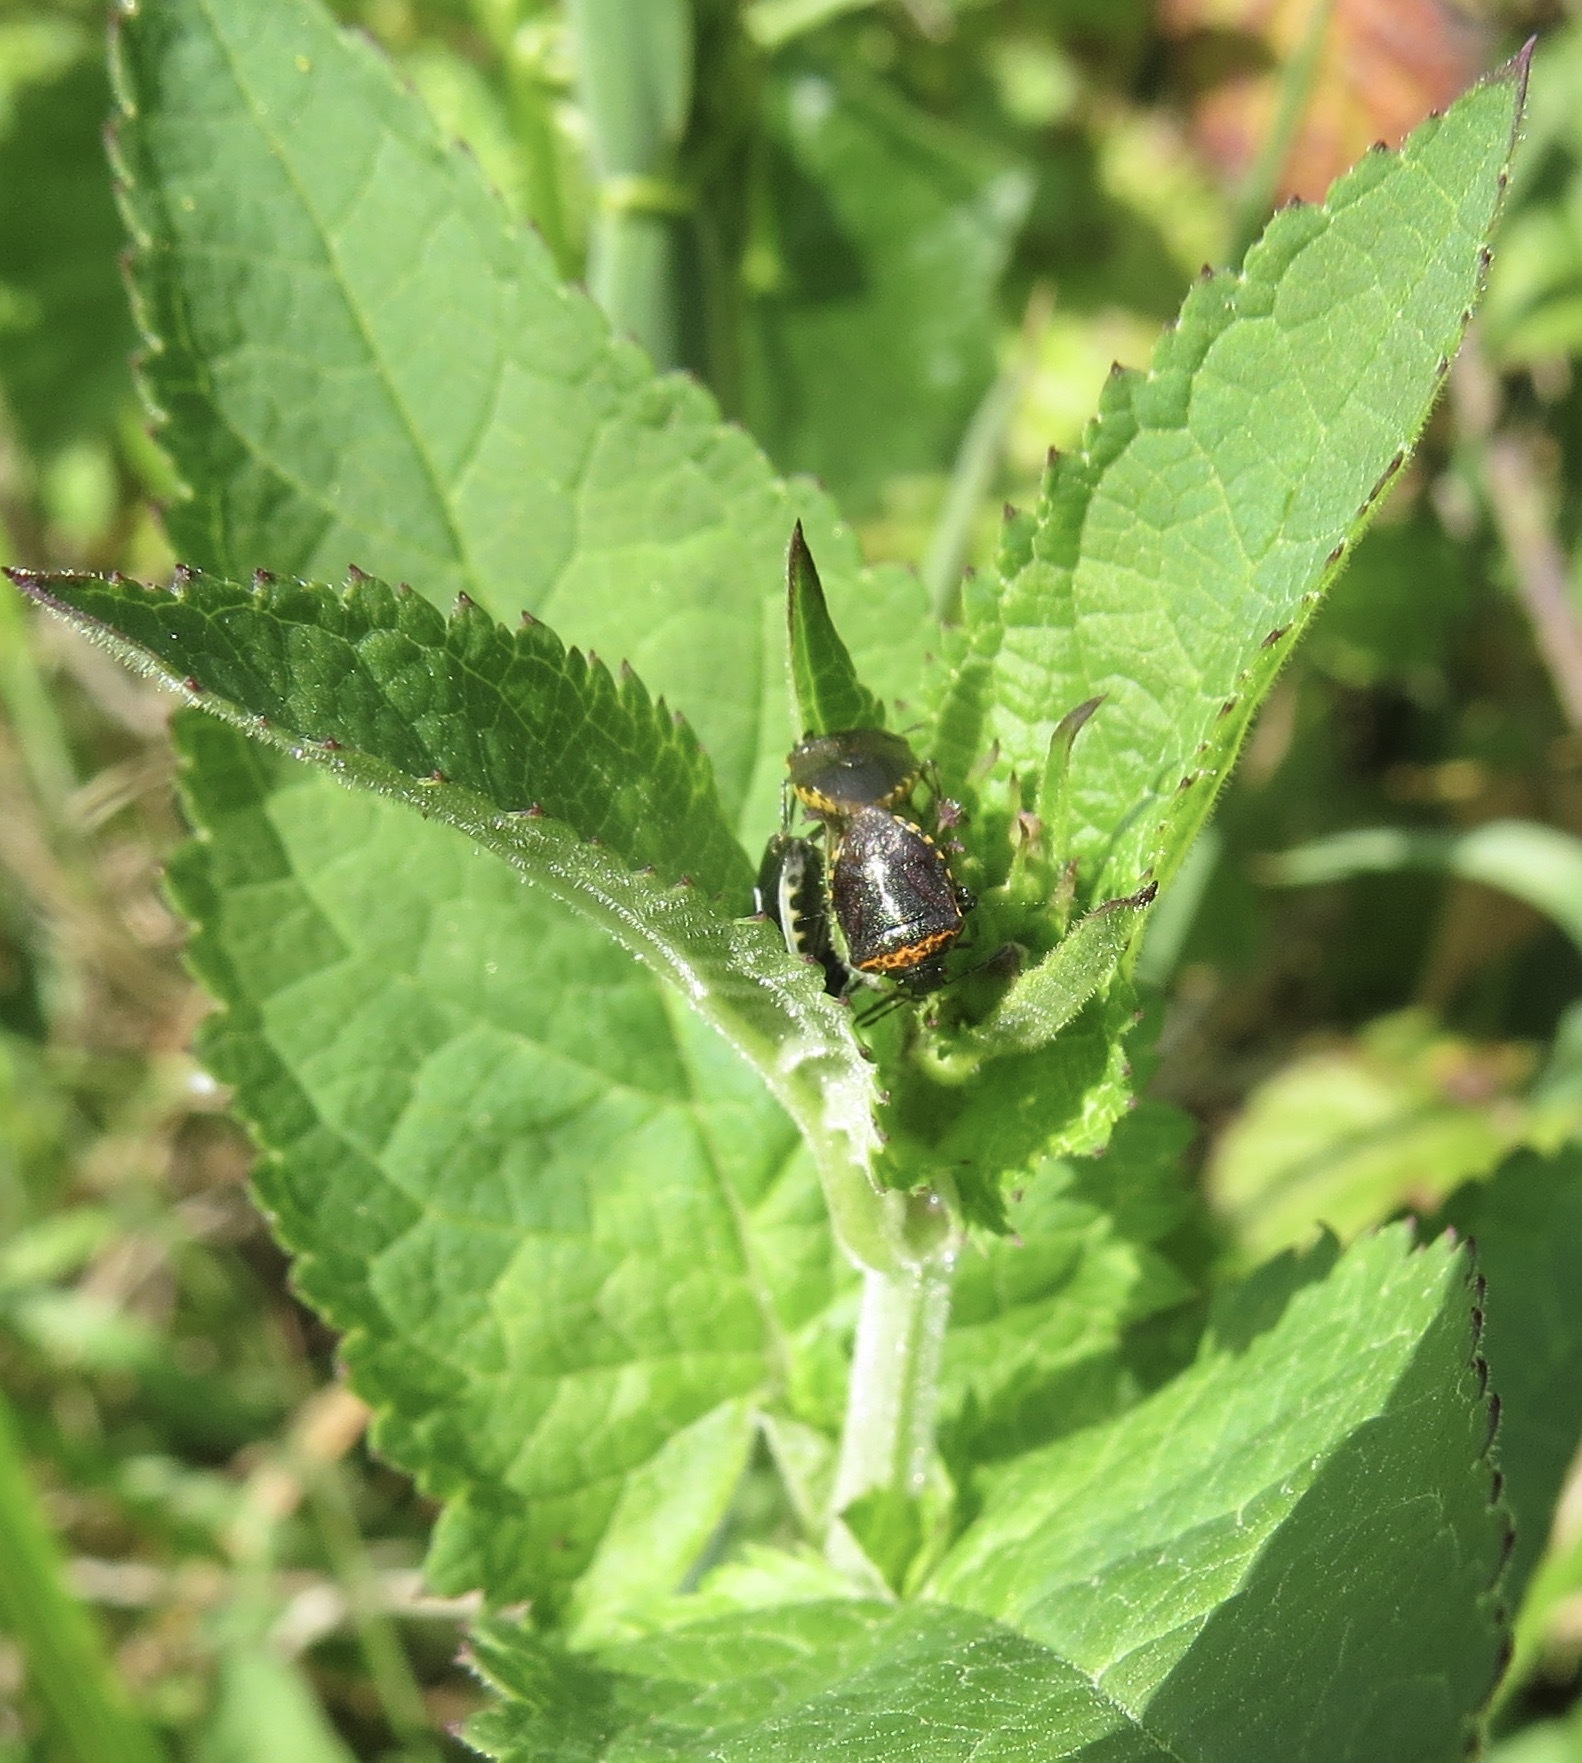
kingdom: Animalia
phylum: Arthropoda
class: Insecta
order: Hemiptera
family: Pentatomidae
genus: Cosmopepla
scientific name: Cosmopepla conspicillaris
